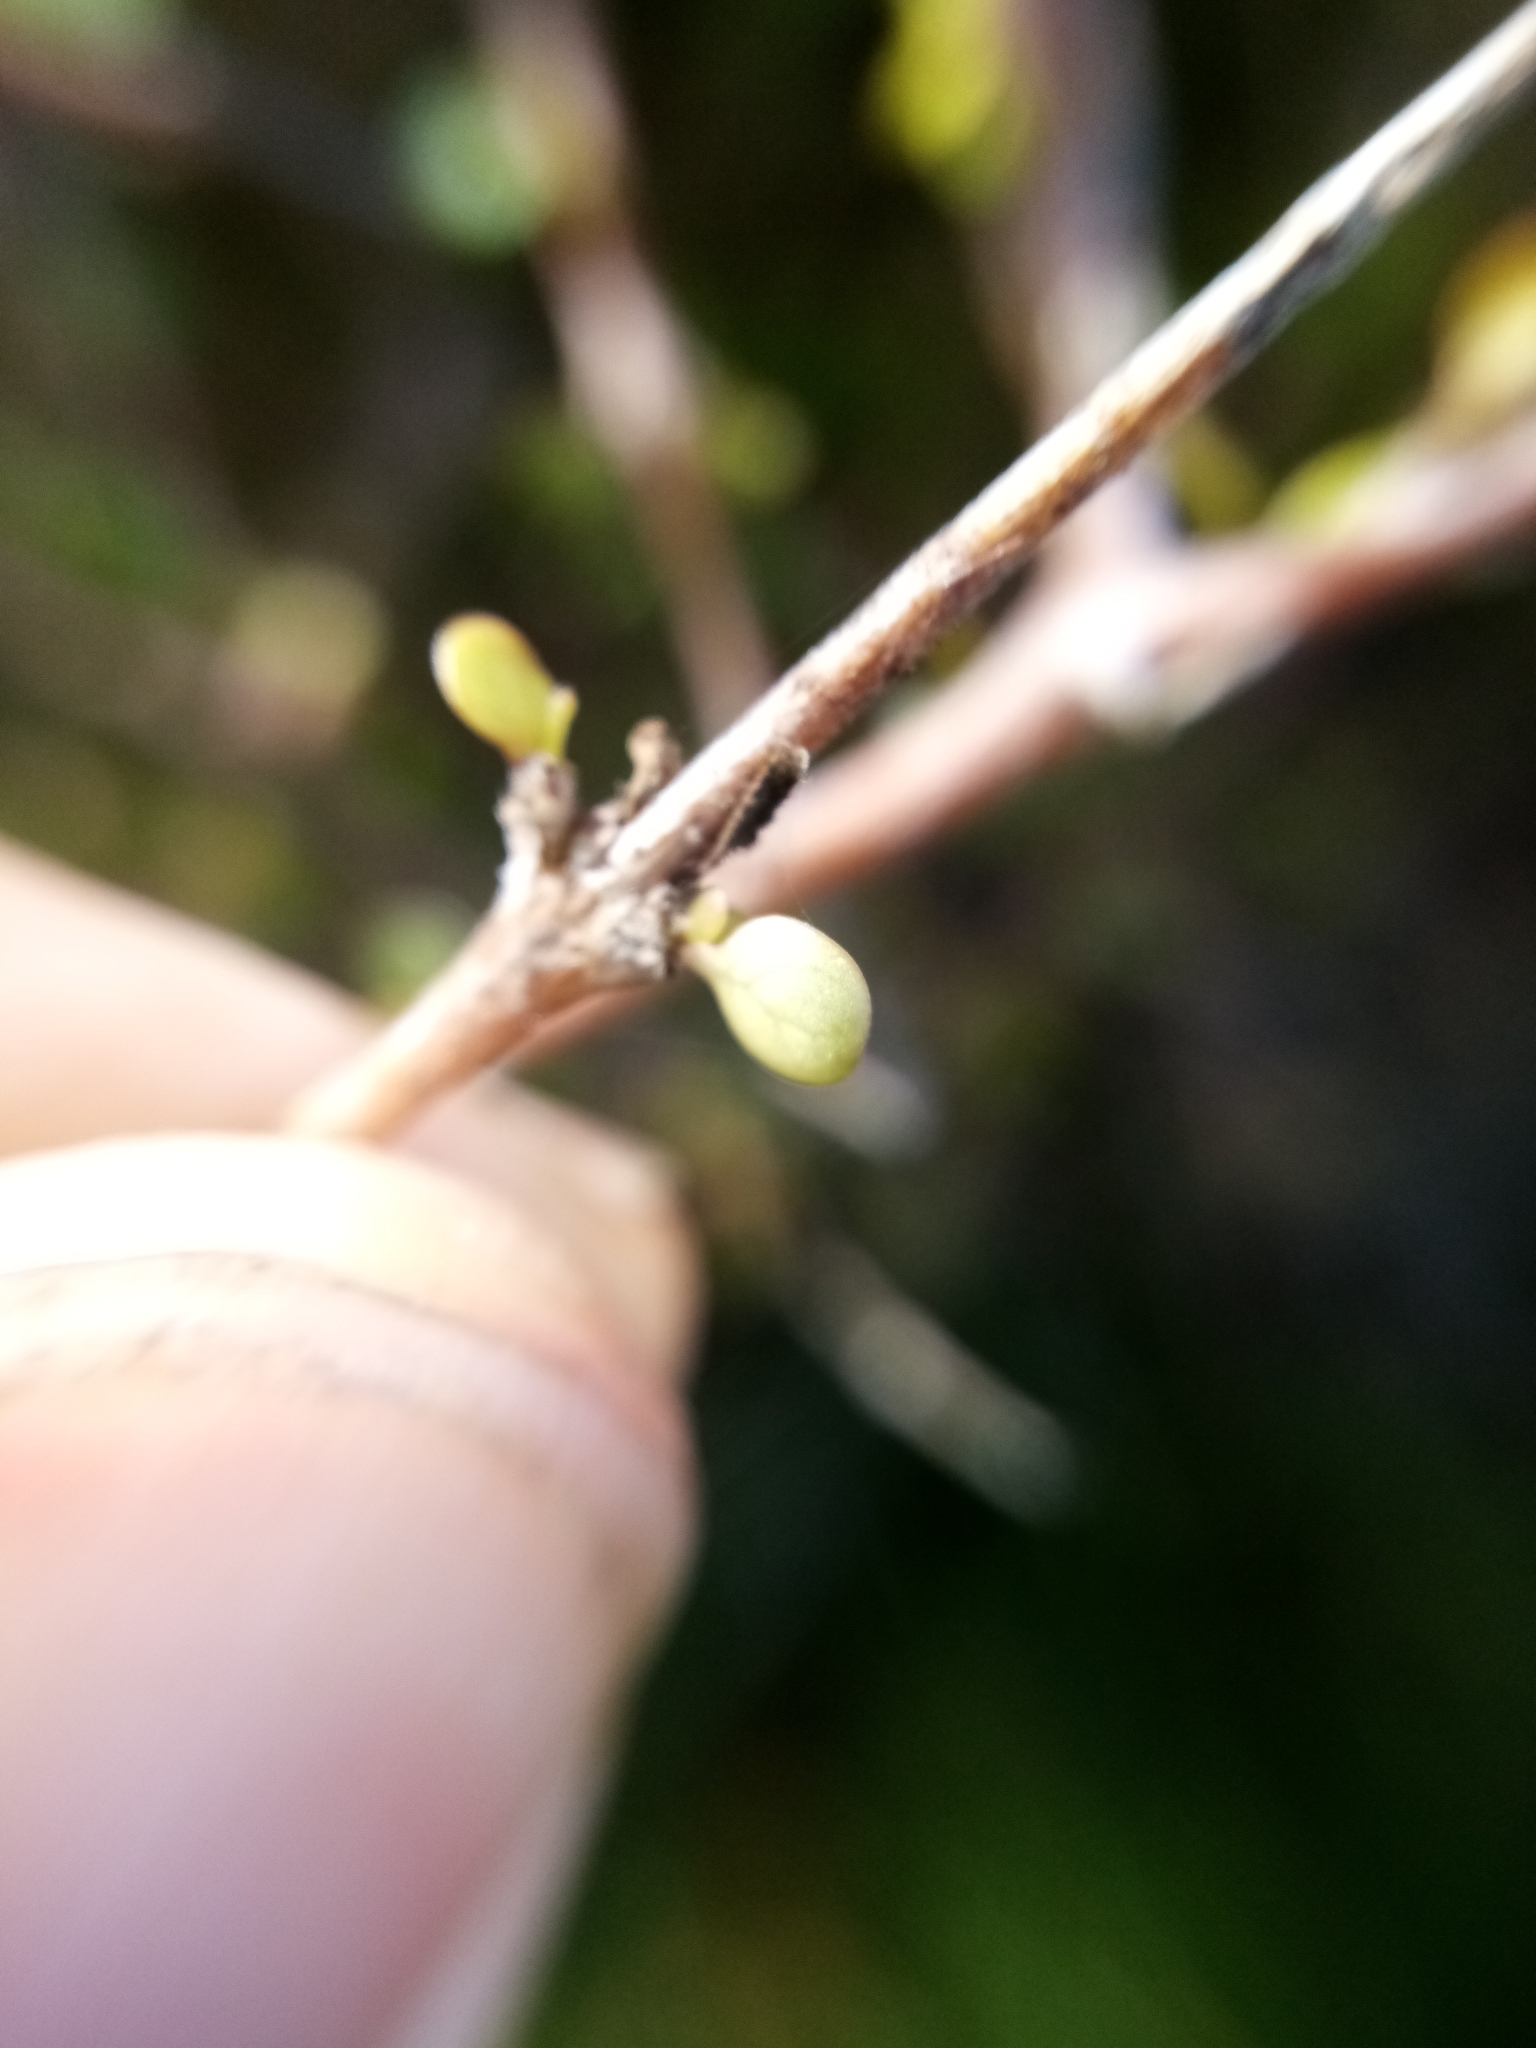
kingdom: Plantae
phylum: Tracheophyta
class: Magnoliopsida
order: Gentianales
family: Rubiaceae
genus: Coprosma
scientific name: Coprosma crassifolia
